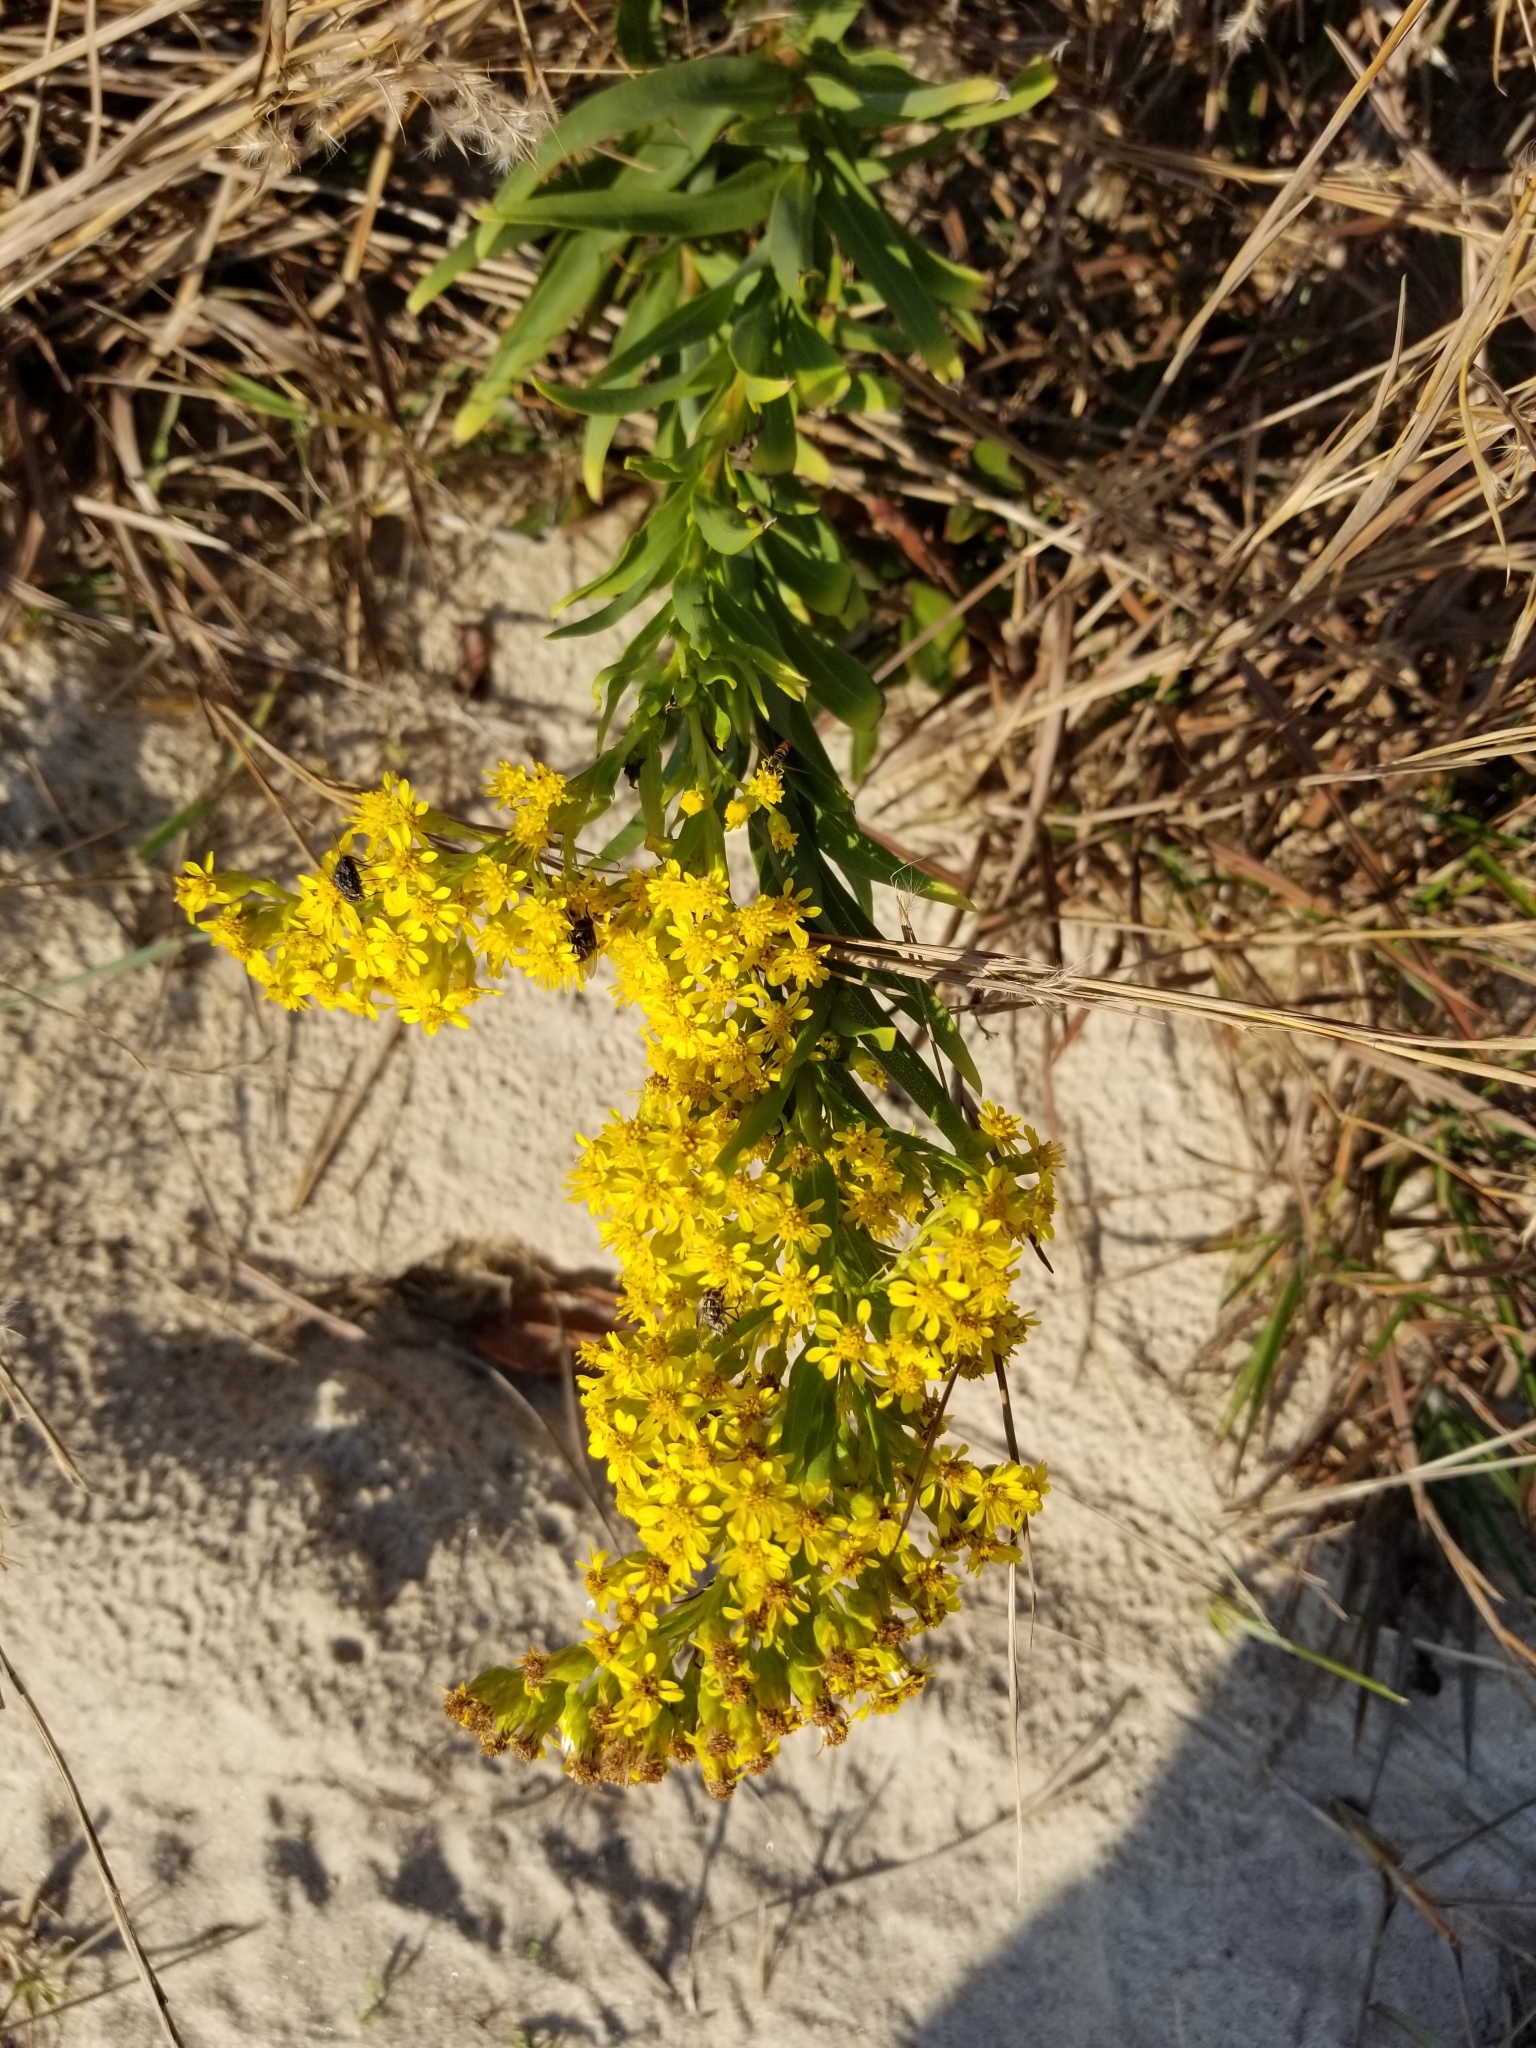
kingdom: Plantae
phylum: Tracheophyta
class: Magnoliopsida
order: Asterales
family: Asteraceae
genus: Solidago
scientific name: Solidago sempervirens
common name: Salt-marsh goldenrod
